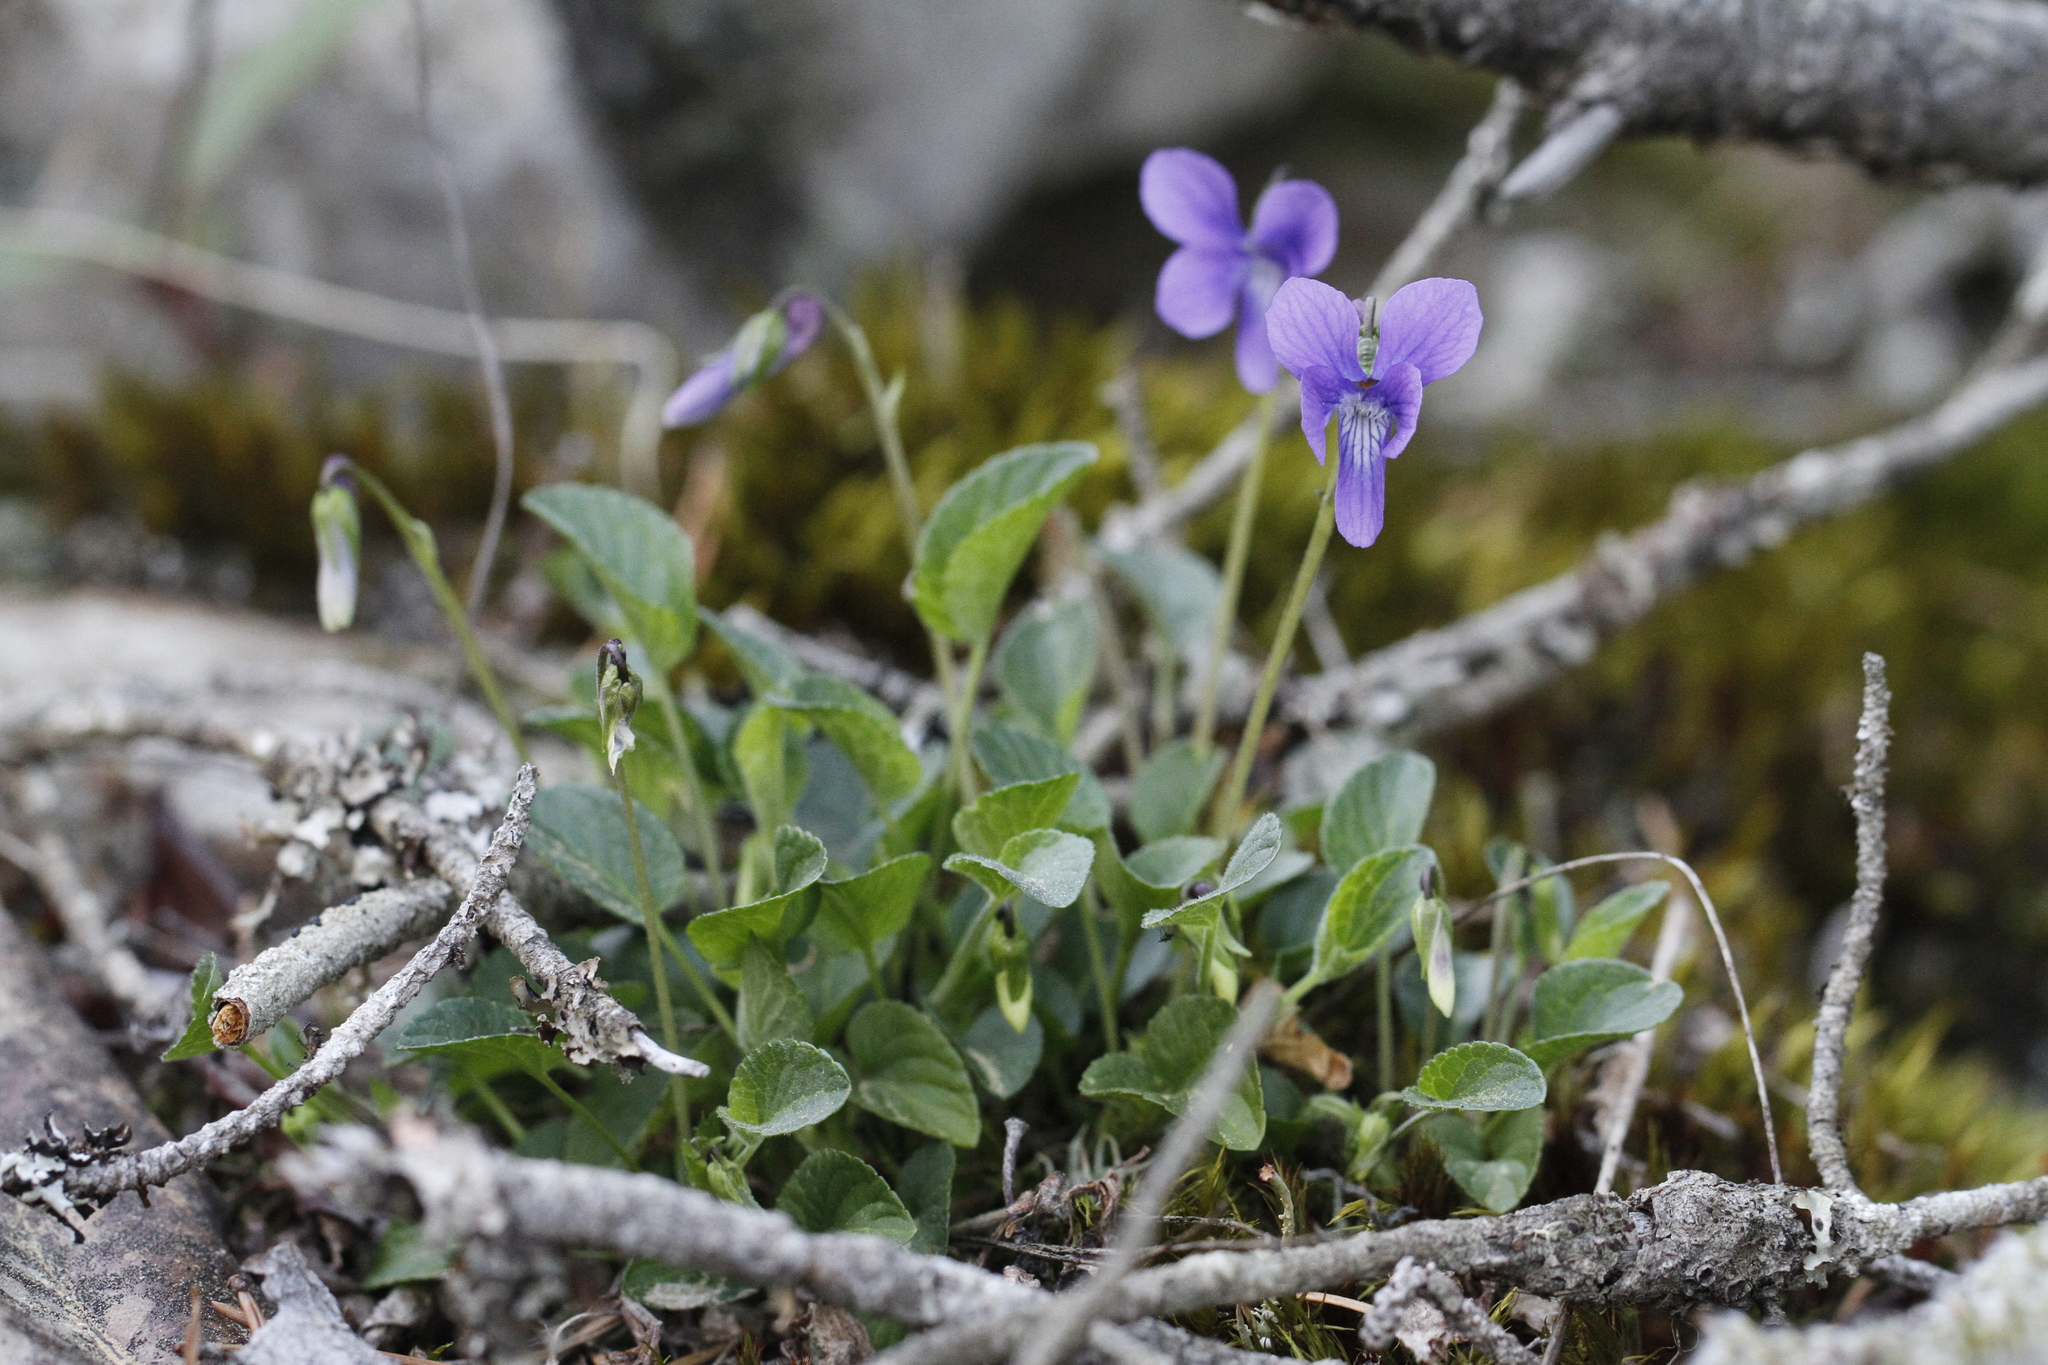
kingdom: Plantae
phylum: Tracheophyta
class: Magnoliopsida
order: Malpighiales
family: Violaceae
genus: Viola
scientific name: Viola adunca
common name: Sand violet
